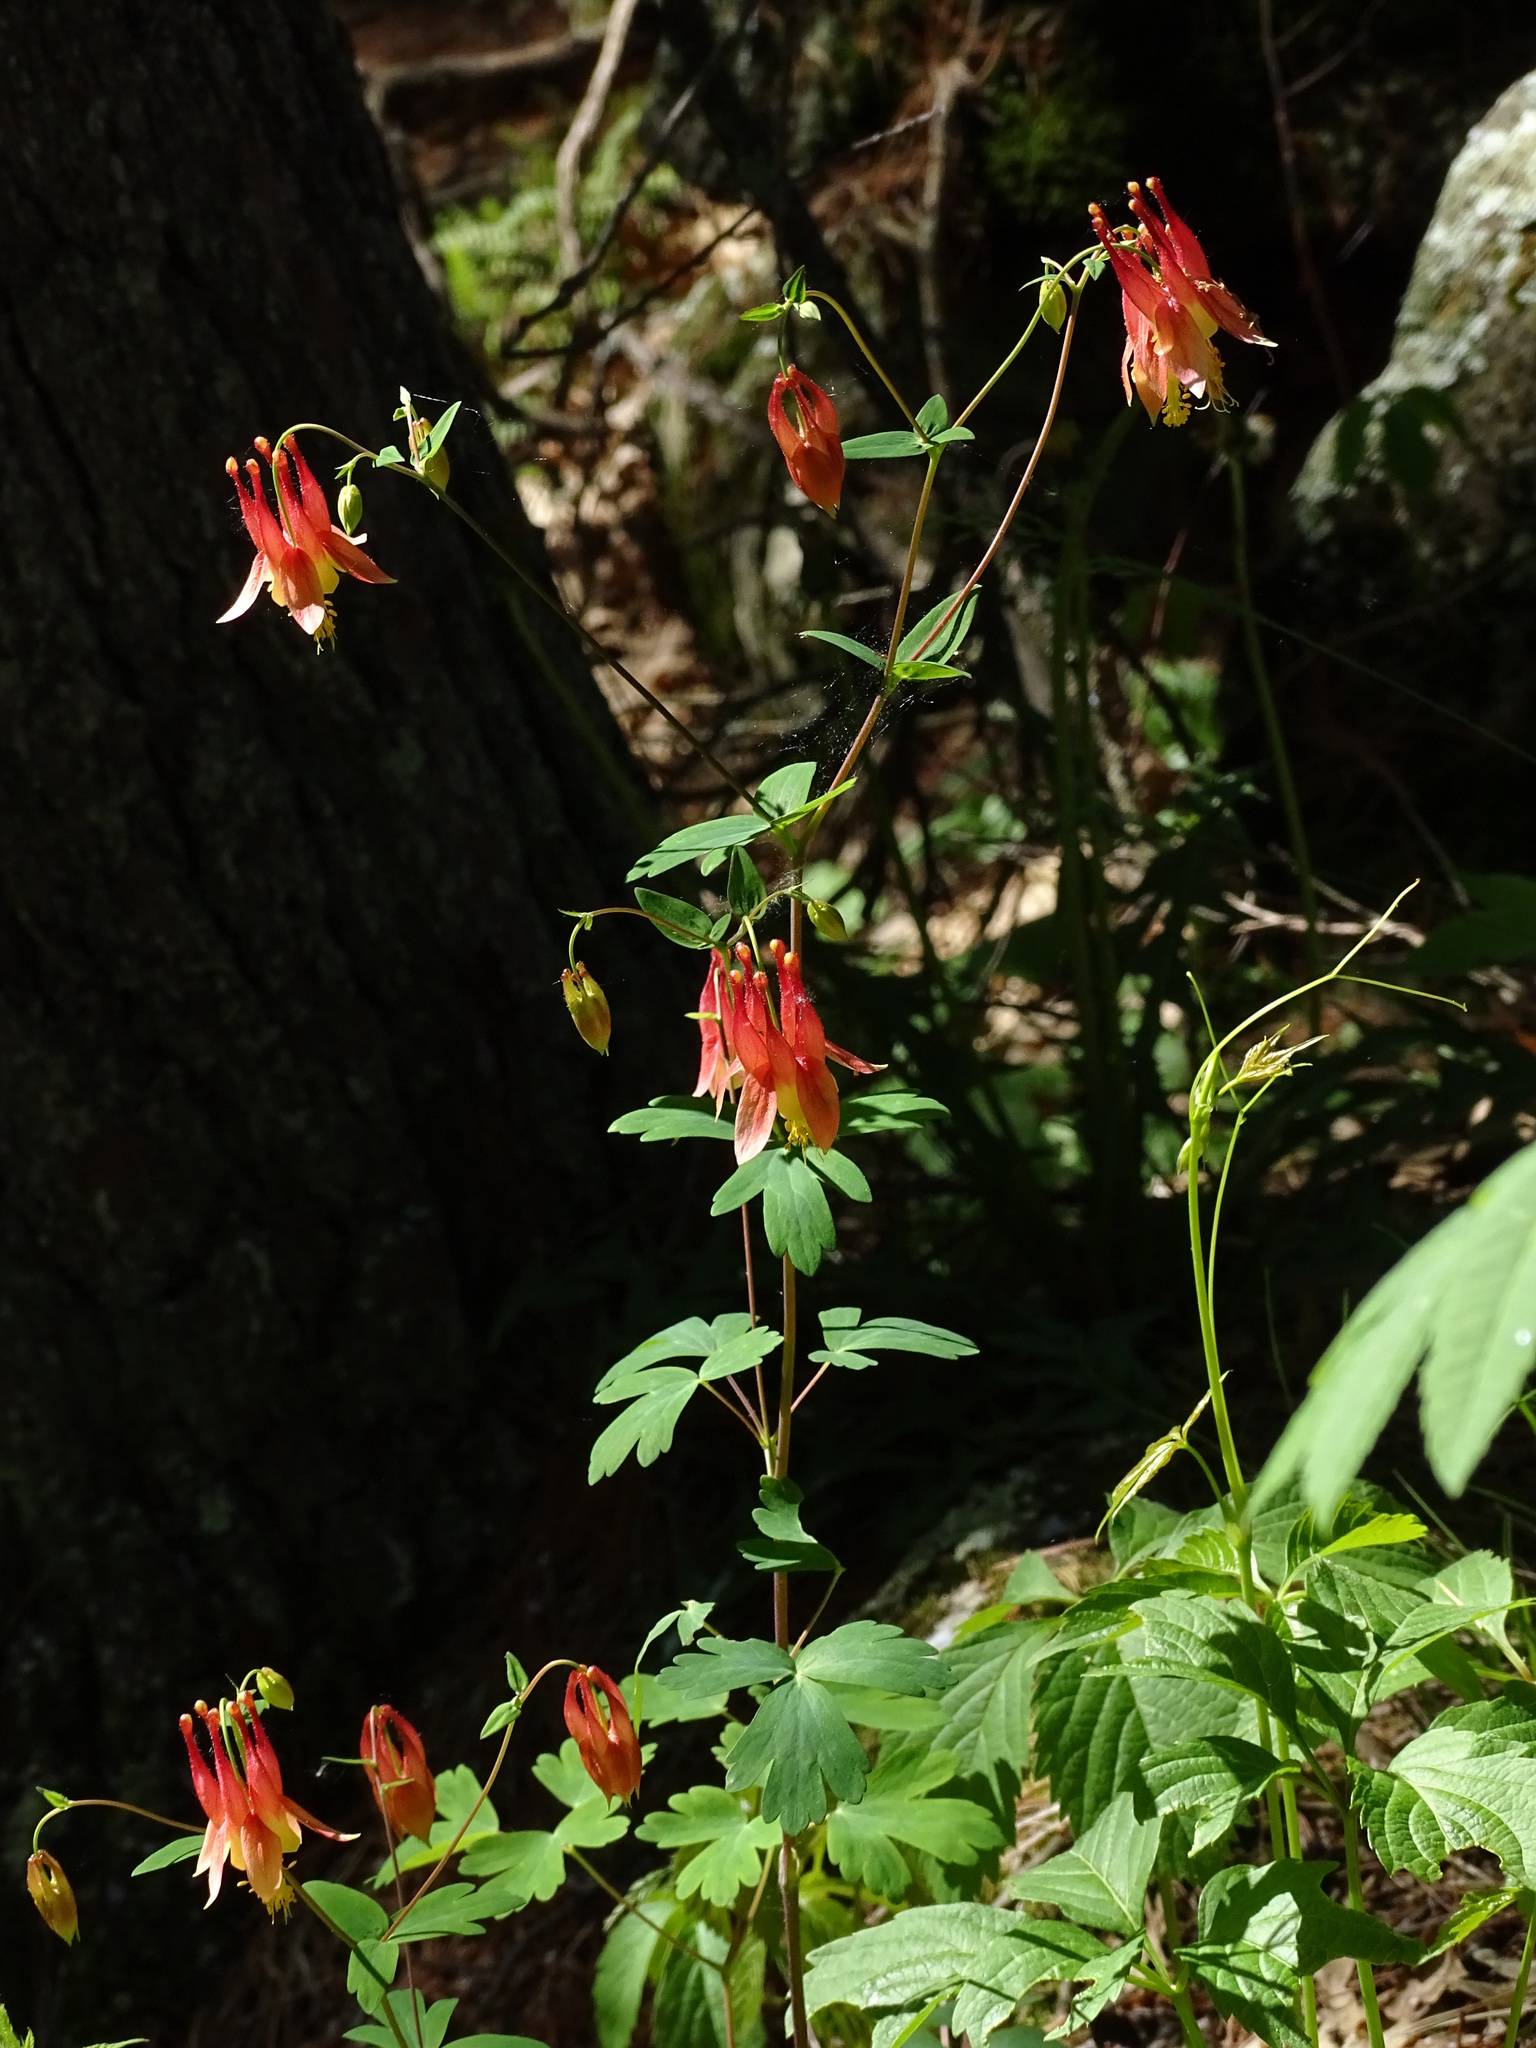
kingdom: Plantae
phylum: Tracheophyta
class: Magnoliopsida
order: Ranunculales
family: Ranunculaceae
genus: Aquilegia
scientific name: Aquilegia canadensis
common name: American columbine
